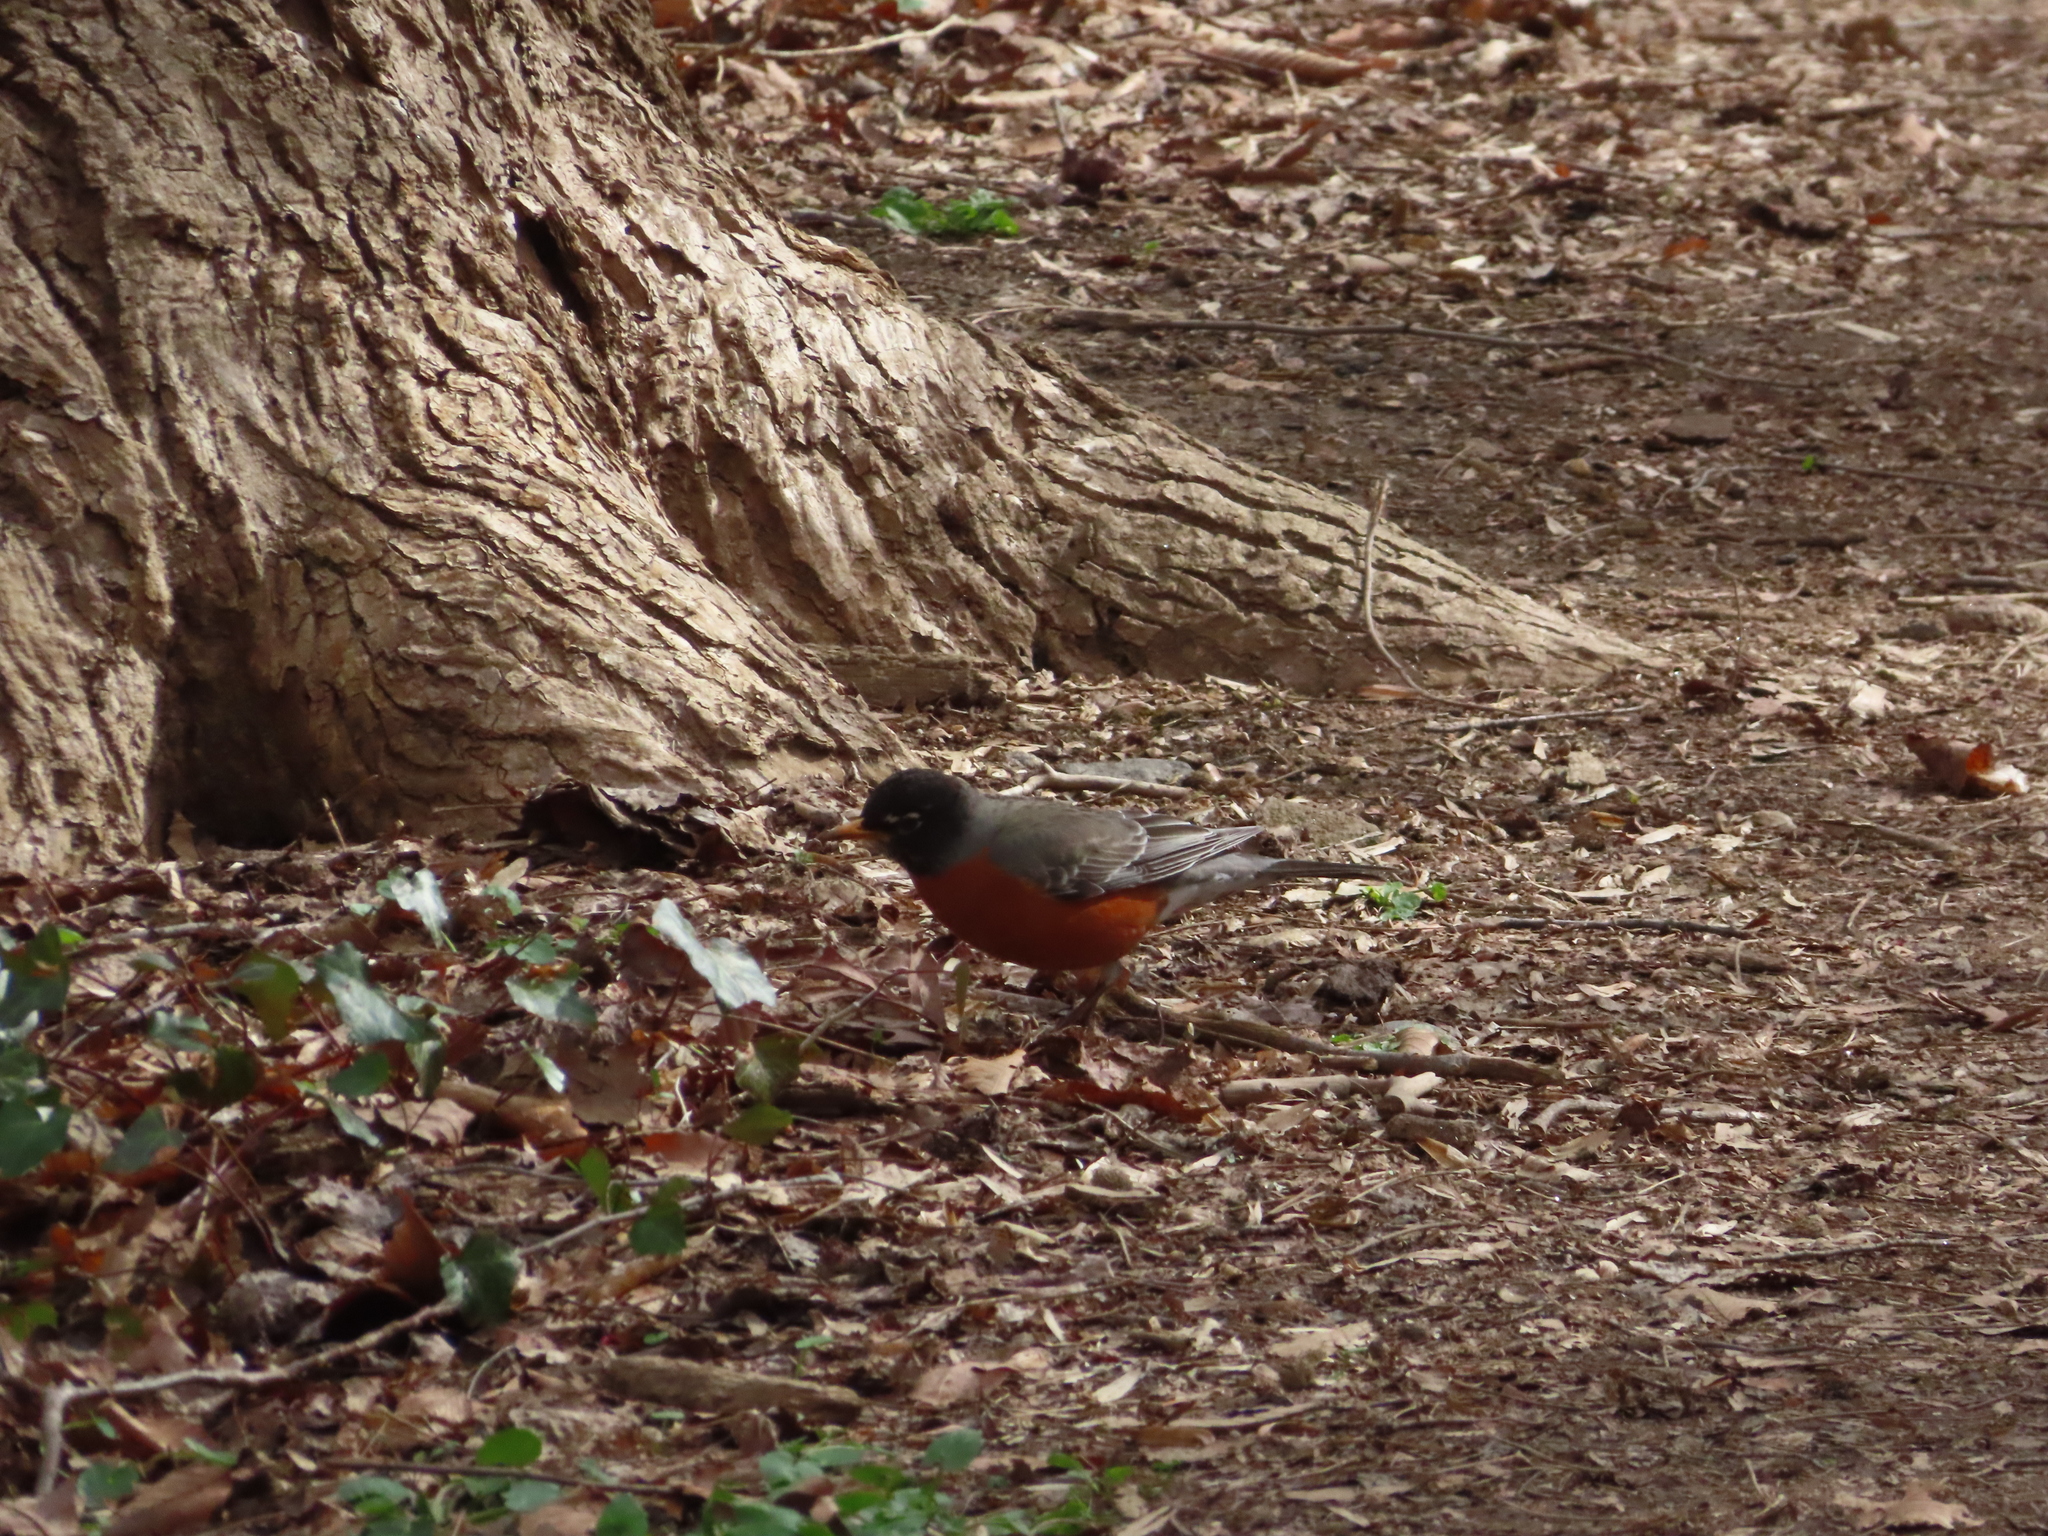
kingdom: Animalia
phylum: Chordata
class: Aves
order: Passeriformes
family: Turdidae
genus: Turdus
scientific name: Turdus migratorius
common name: American robin
